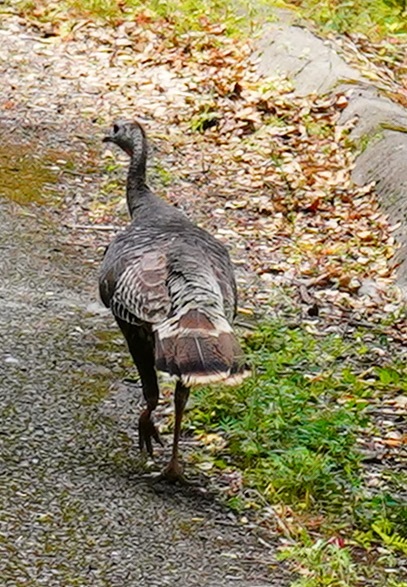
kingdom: Animalia
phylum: Chordata
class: Aves
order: Galliformes
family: Phasianidae
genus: Meleagris
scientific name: Meleagris gallopavo
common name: Wild turkey
